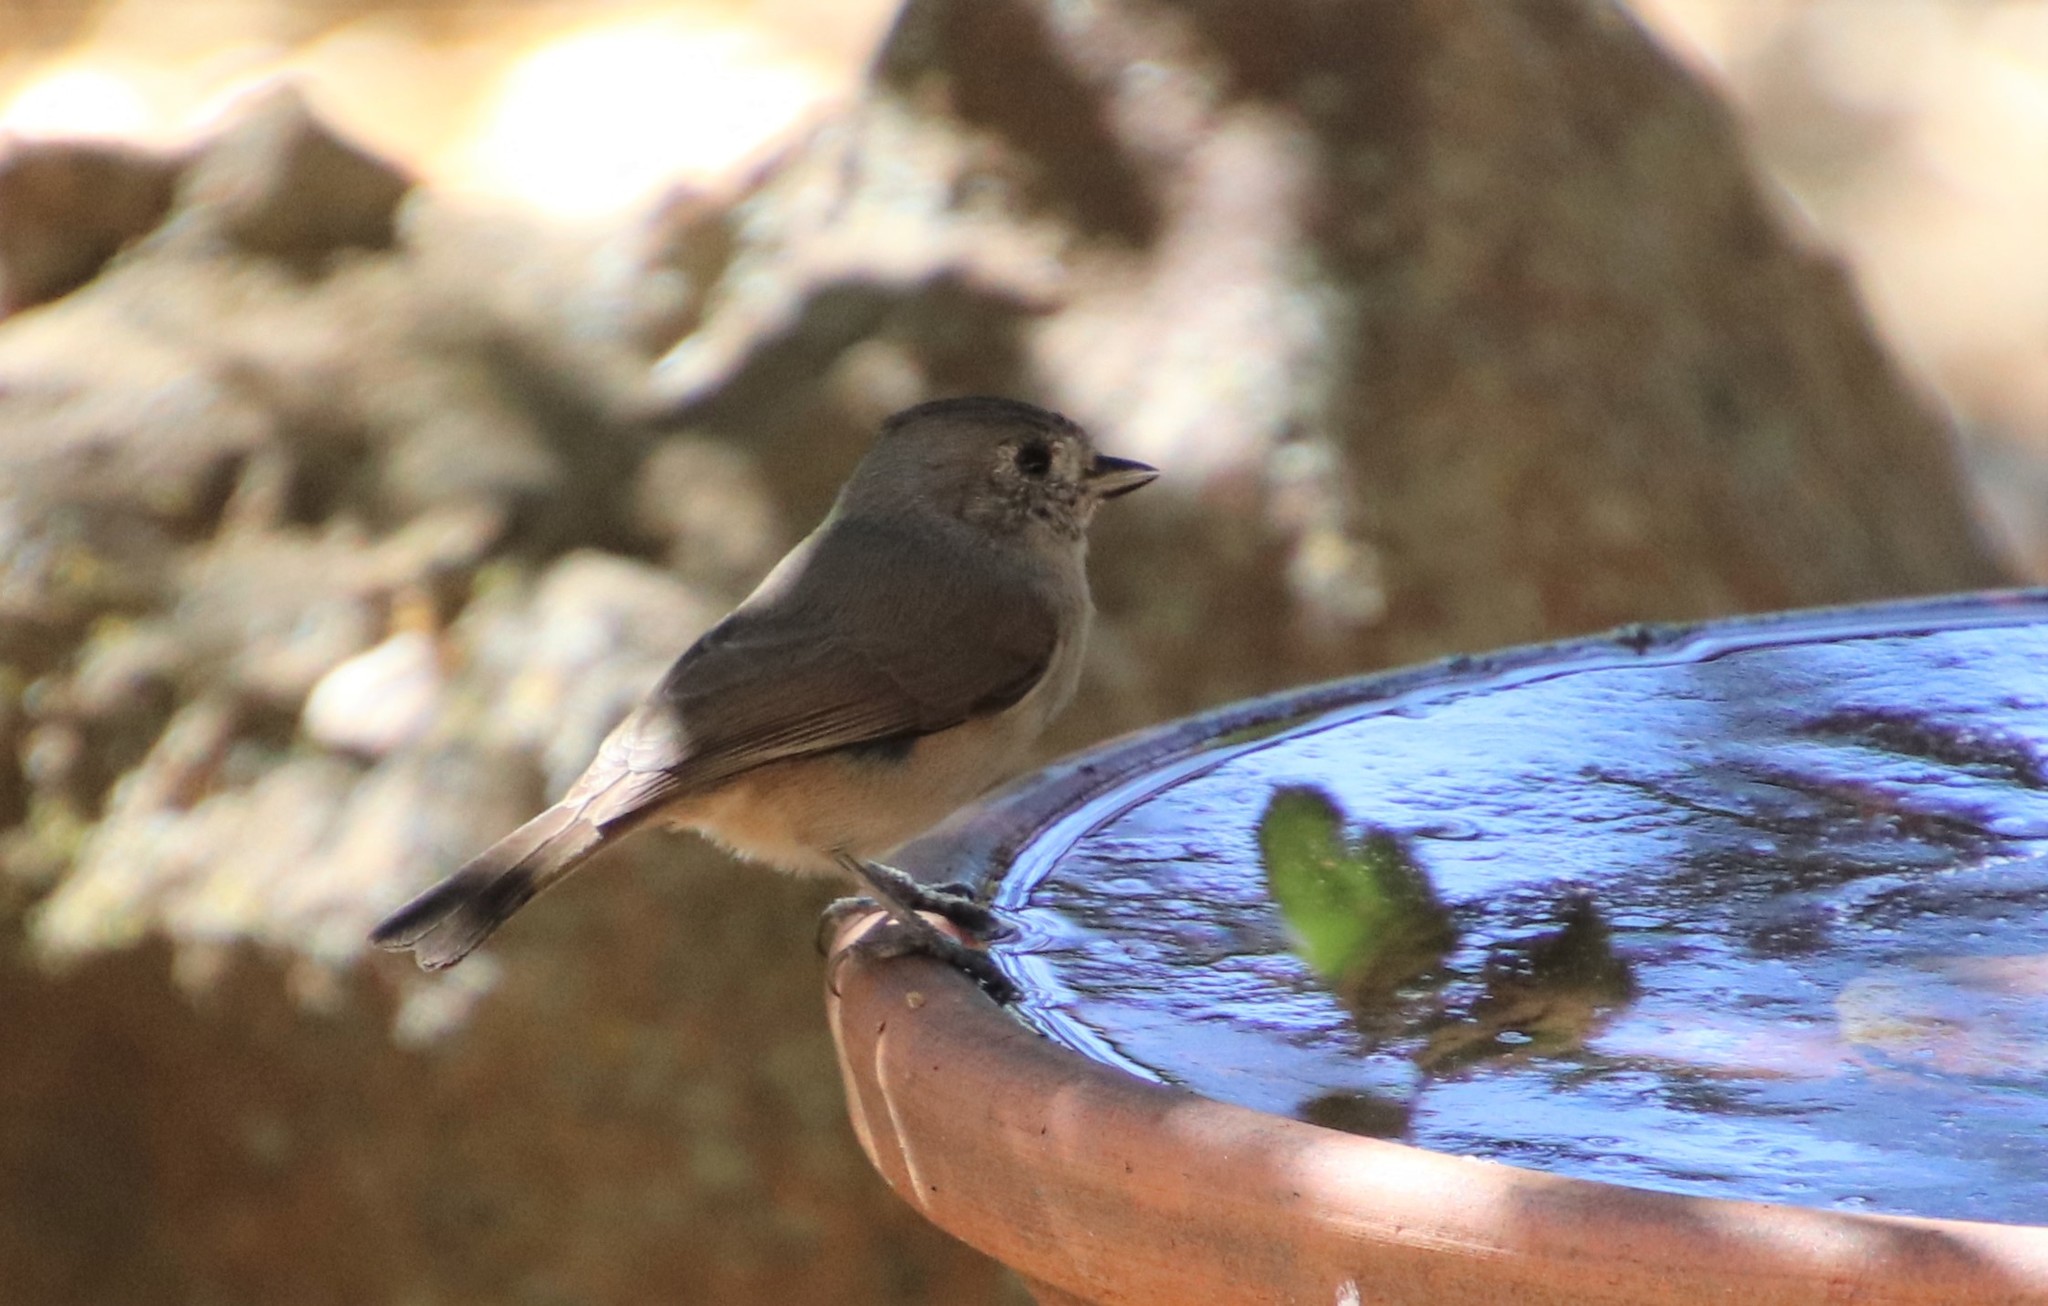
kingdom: Animalia
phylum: Chordata
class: Aves
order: Passeriformes
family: Paridae
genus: Baeolophus
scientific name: Baeolophus inornatus
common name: Oak titmouse
